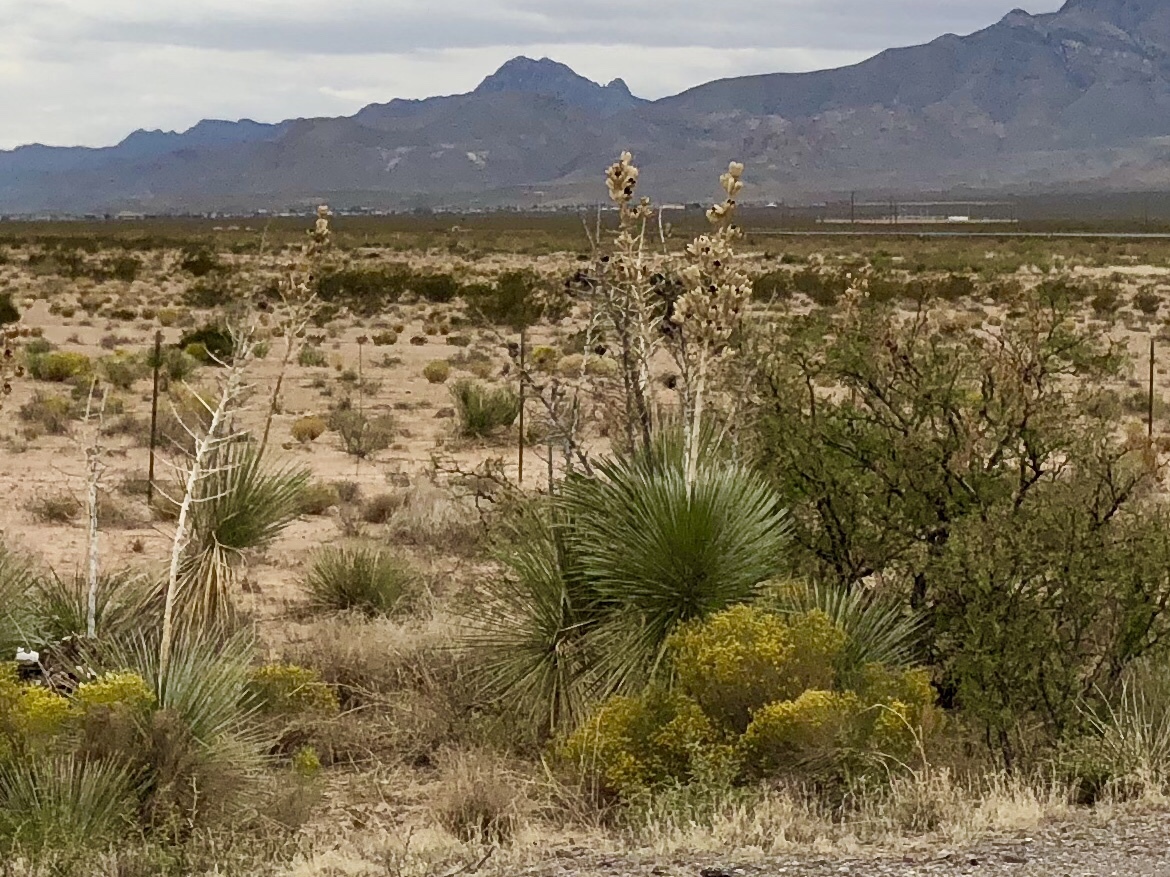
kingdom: Plantae
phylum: Tracheophyta
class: Liliopsida
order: Asparagales
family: Asparagaceae
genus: Yucca
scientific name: Yucca elata
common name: Palmella
